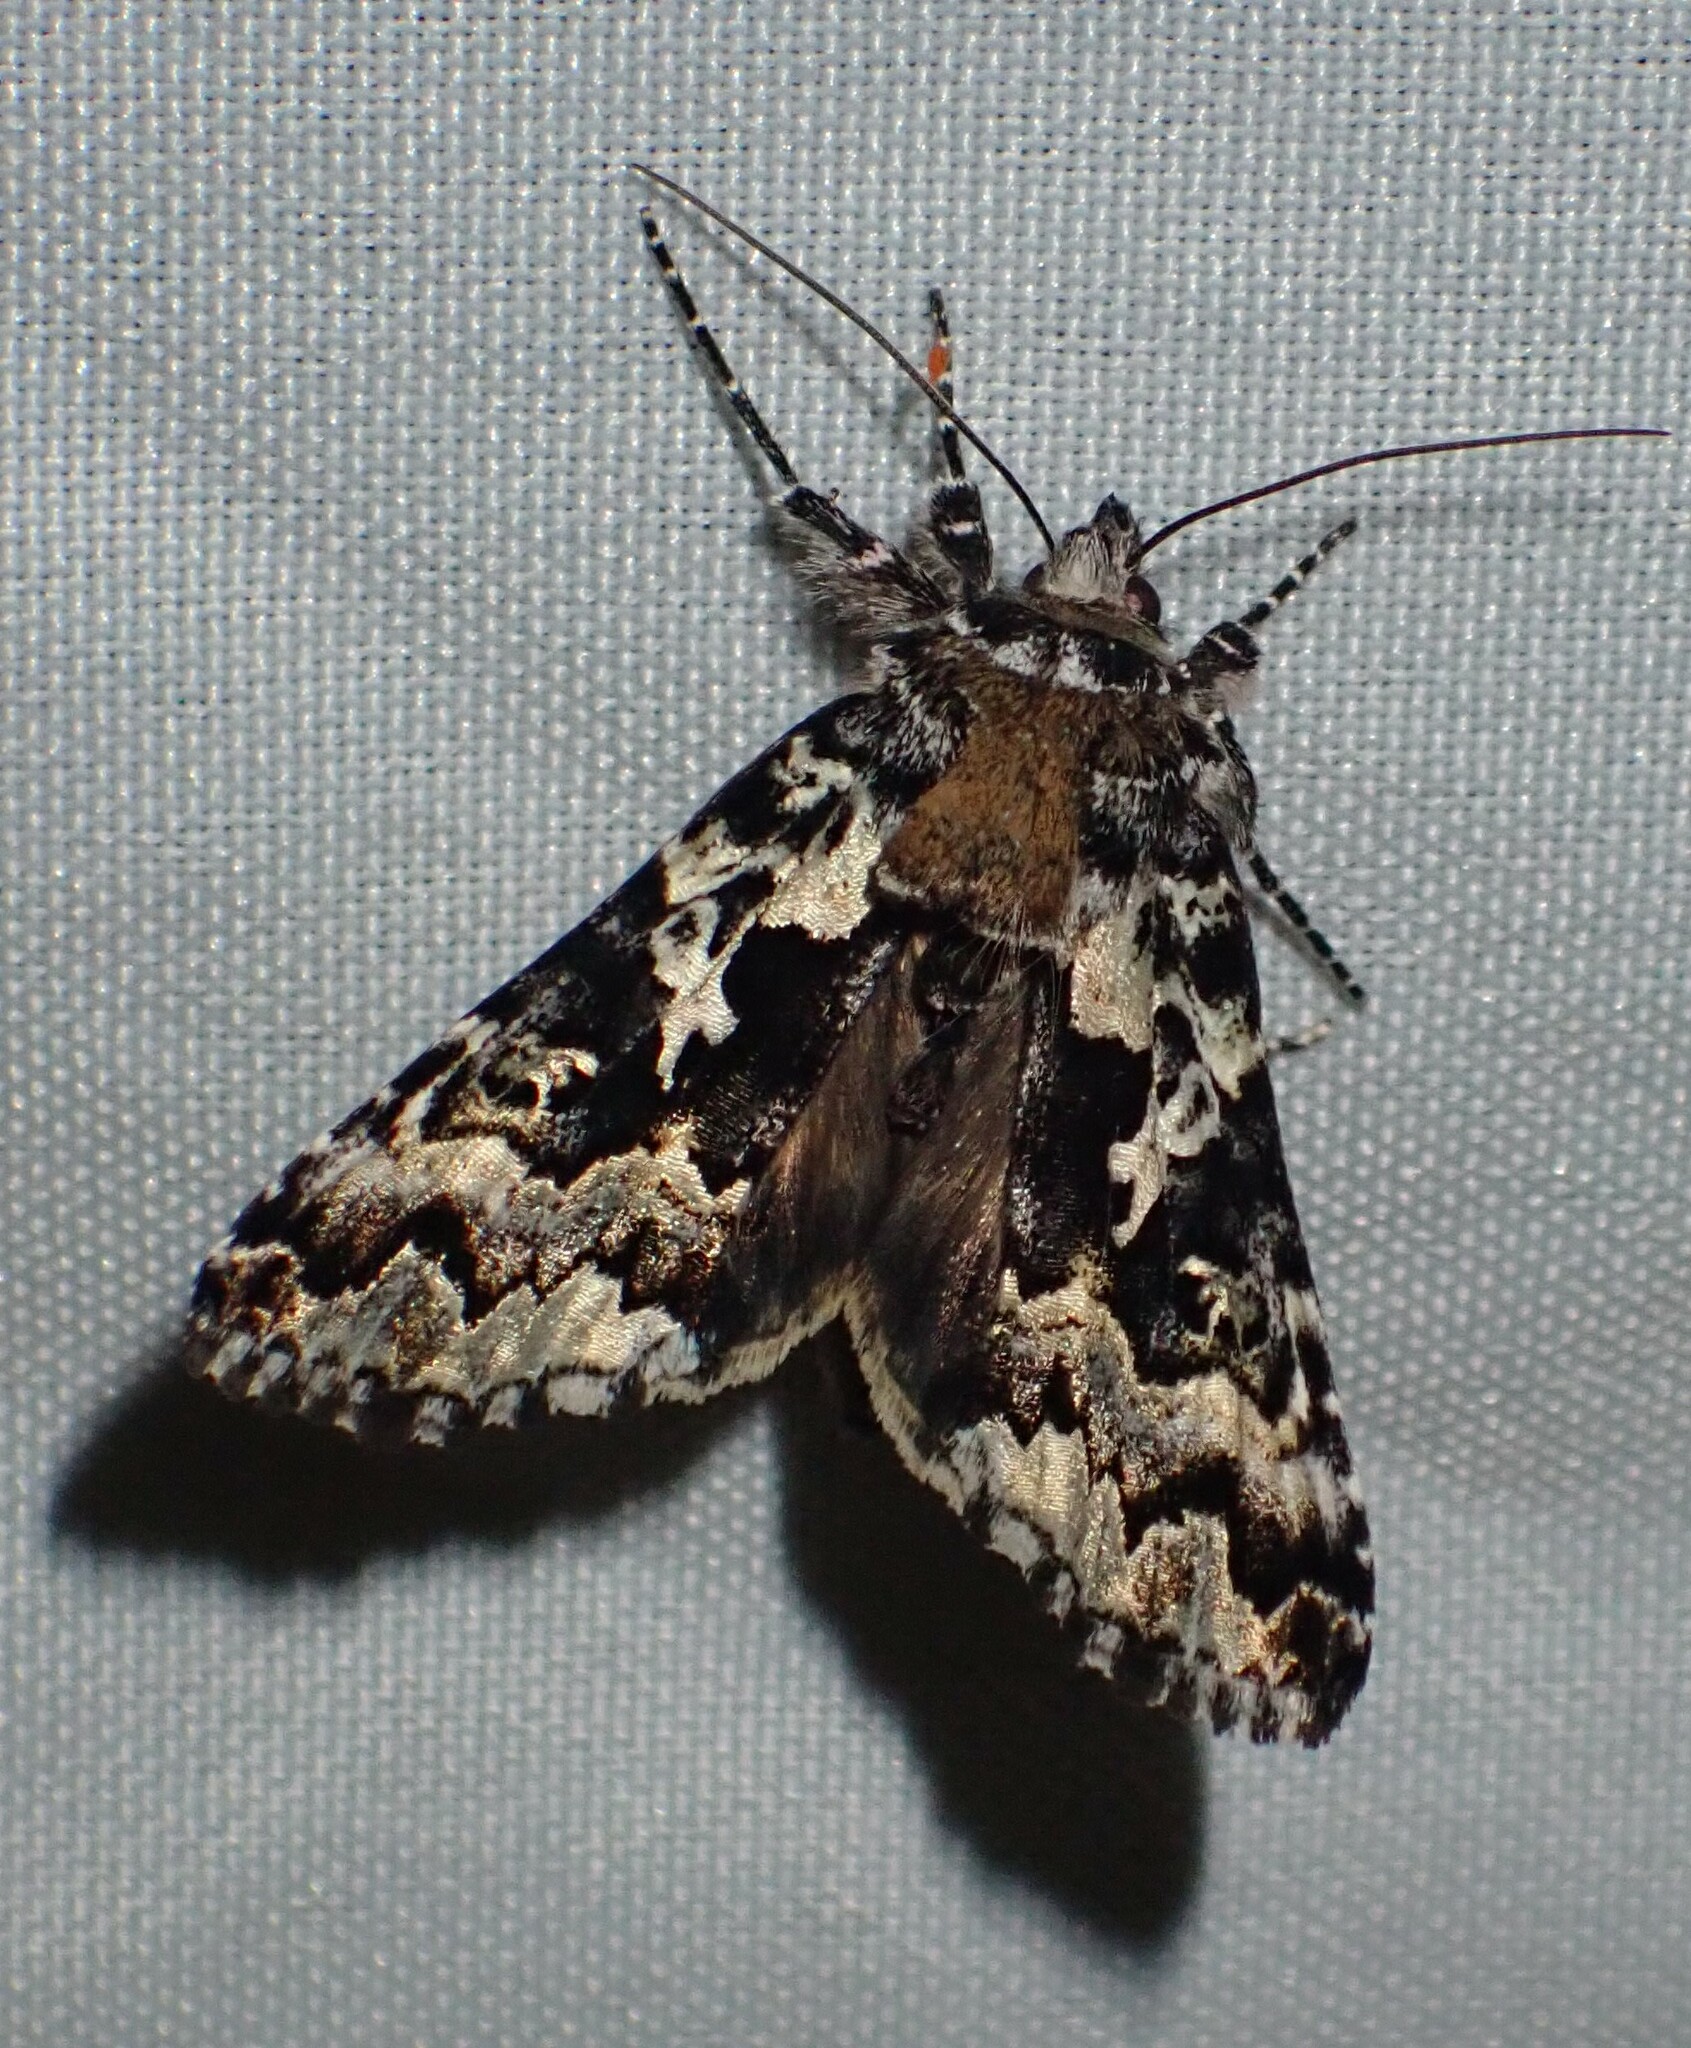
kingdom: Animalia
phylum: Arthropoda
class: Insecta
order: Lepidoptera
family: Noctuidae
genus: Syngrapha
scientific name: Syngrapha rectangula
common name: Angulated cutworm
